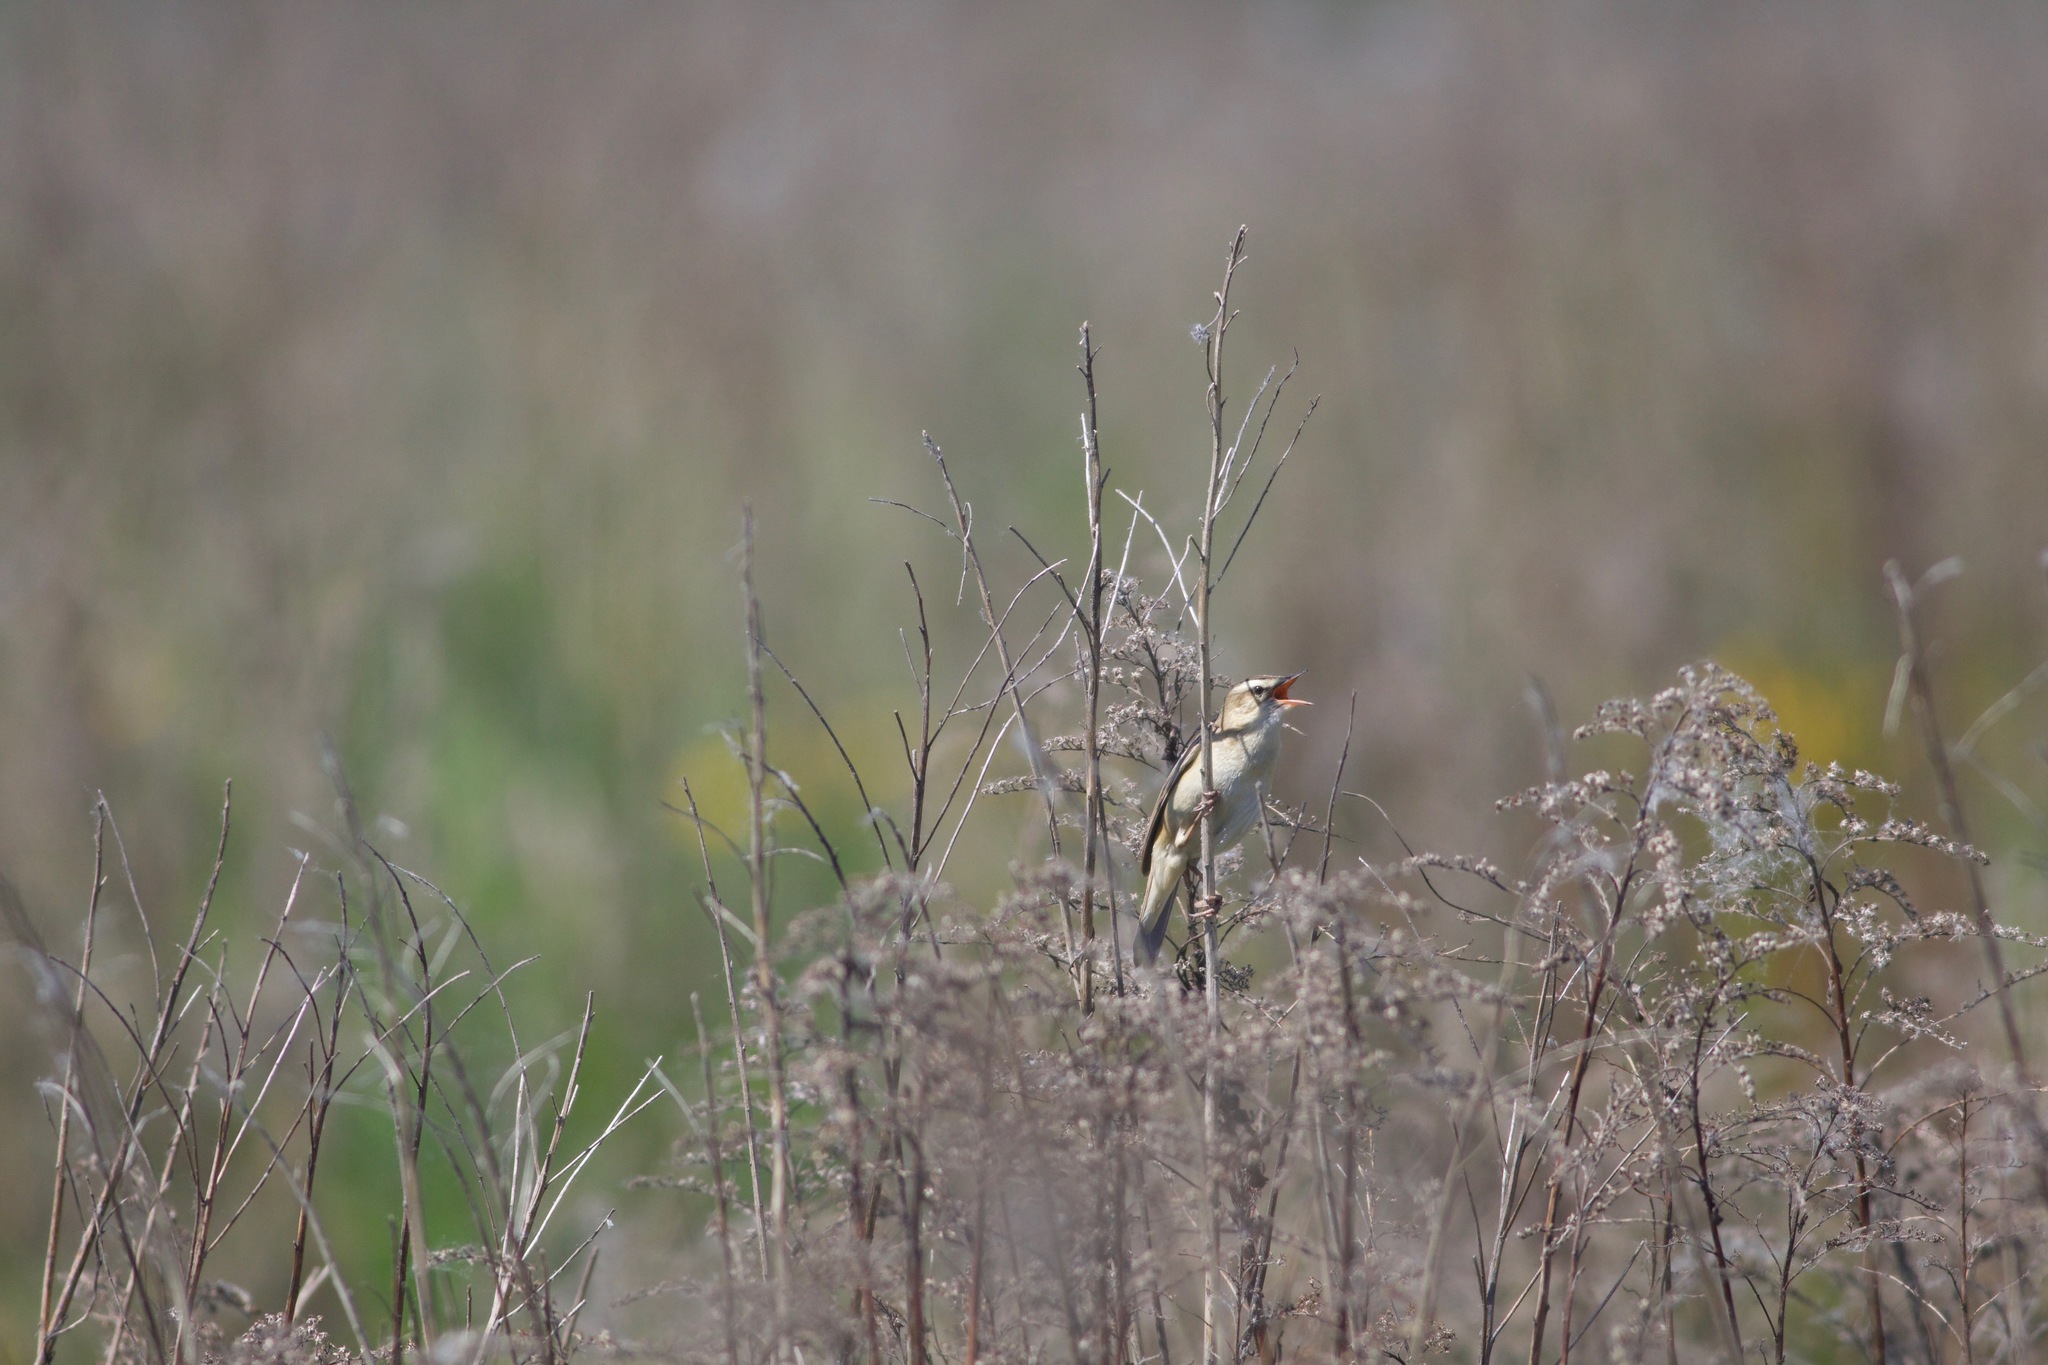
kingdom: Animalia
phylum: Chordata
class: Aves
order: Passeriformes
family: Acrocephalidae
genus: Acrocephalus
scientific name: Acrocephalus schoenobaenus
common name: Sedge warbler
